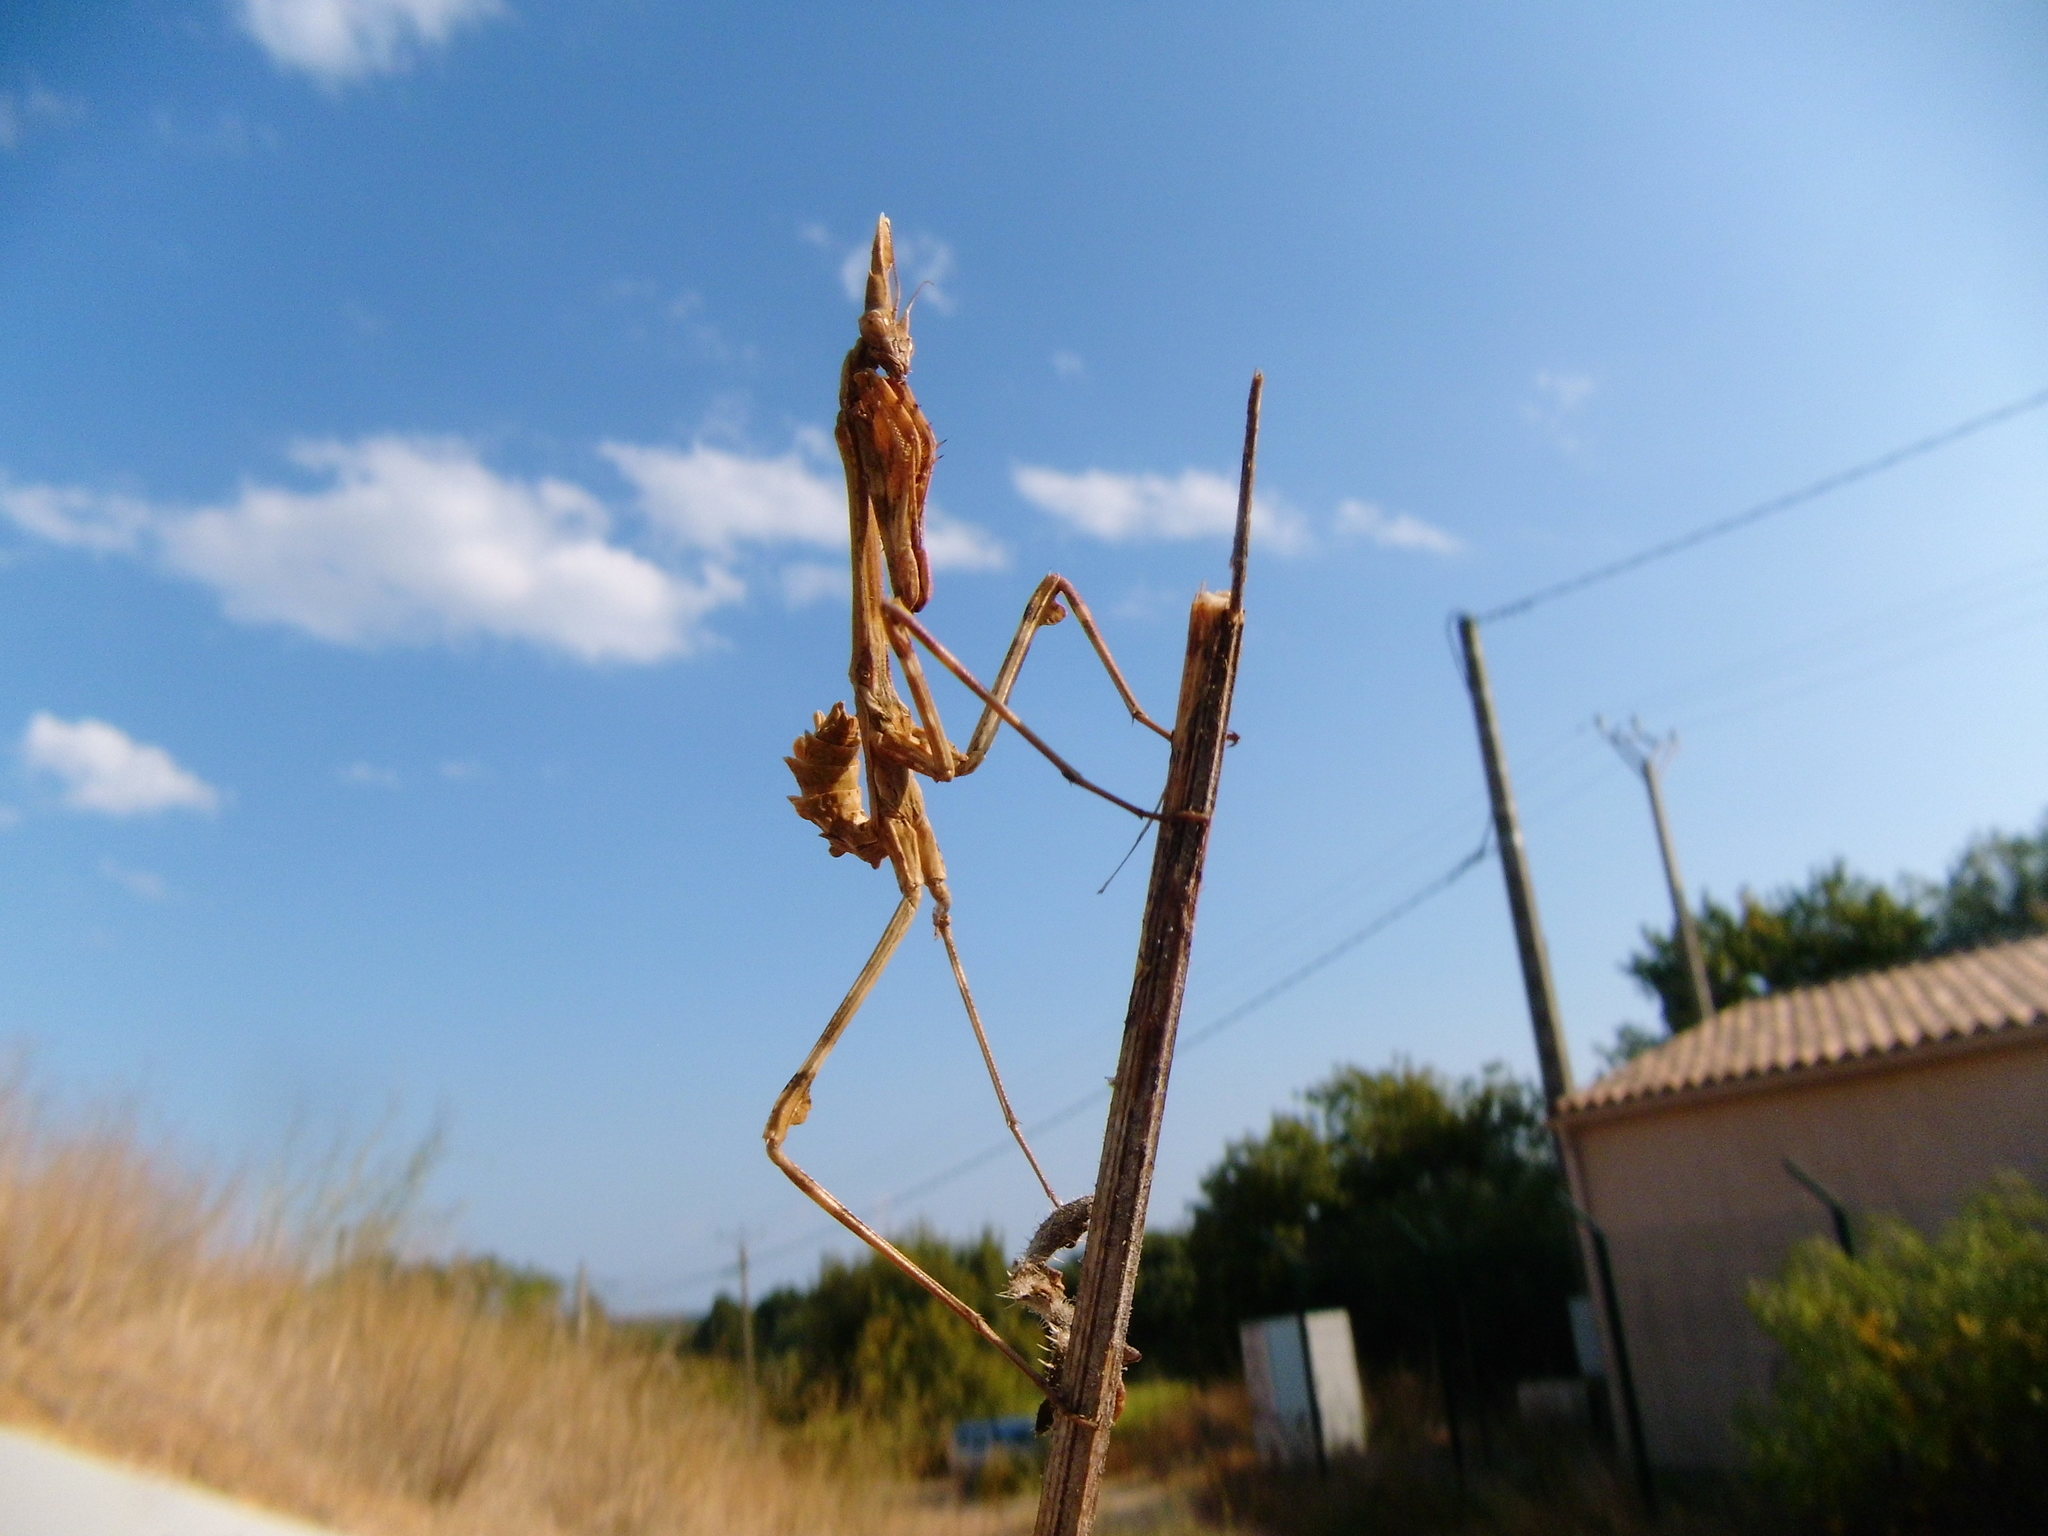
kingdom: Animalia
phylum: Arthropoda
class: Insecta
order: Mantodea
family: Empusidae
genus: Empusa
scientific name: Empusa pennata
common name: Conehead mantis
